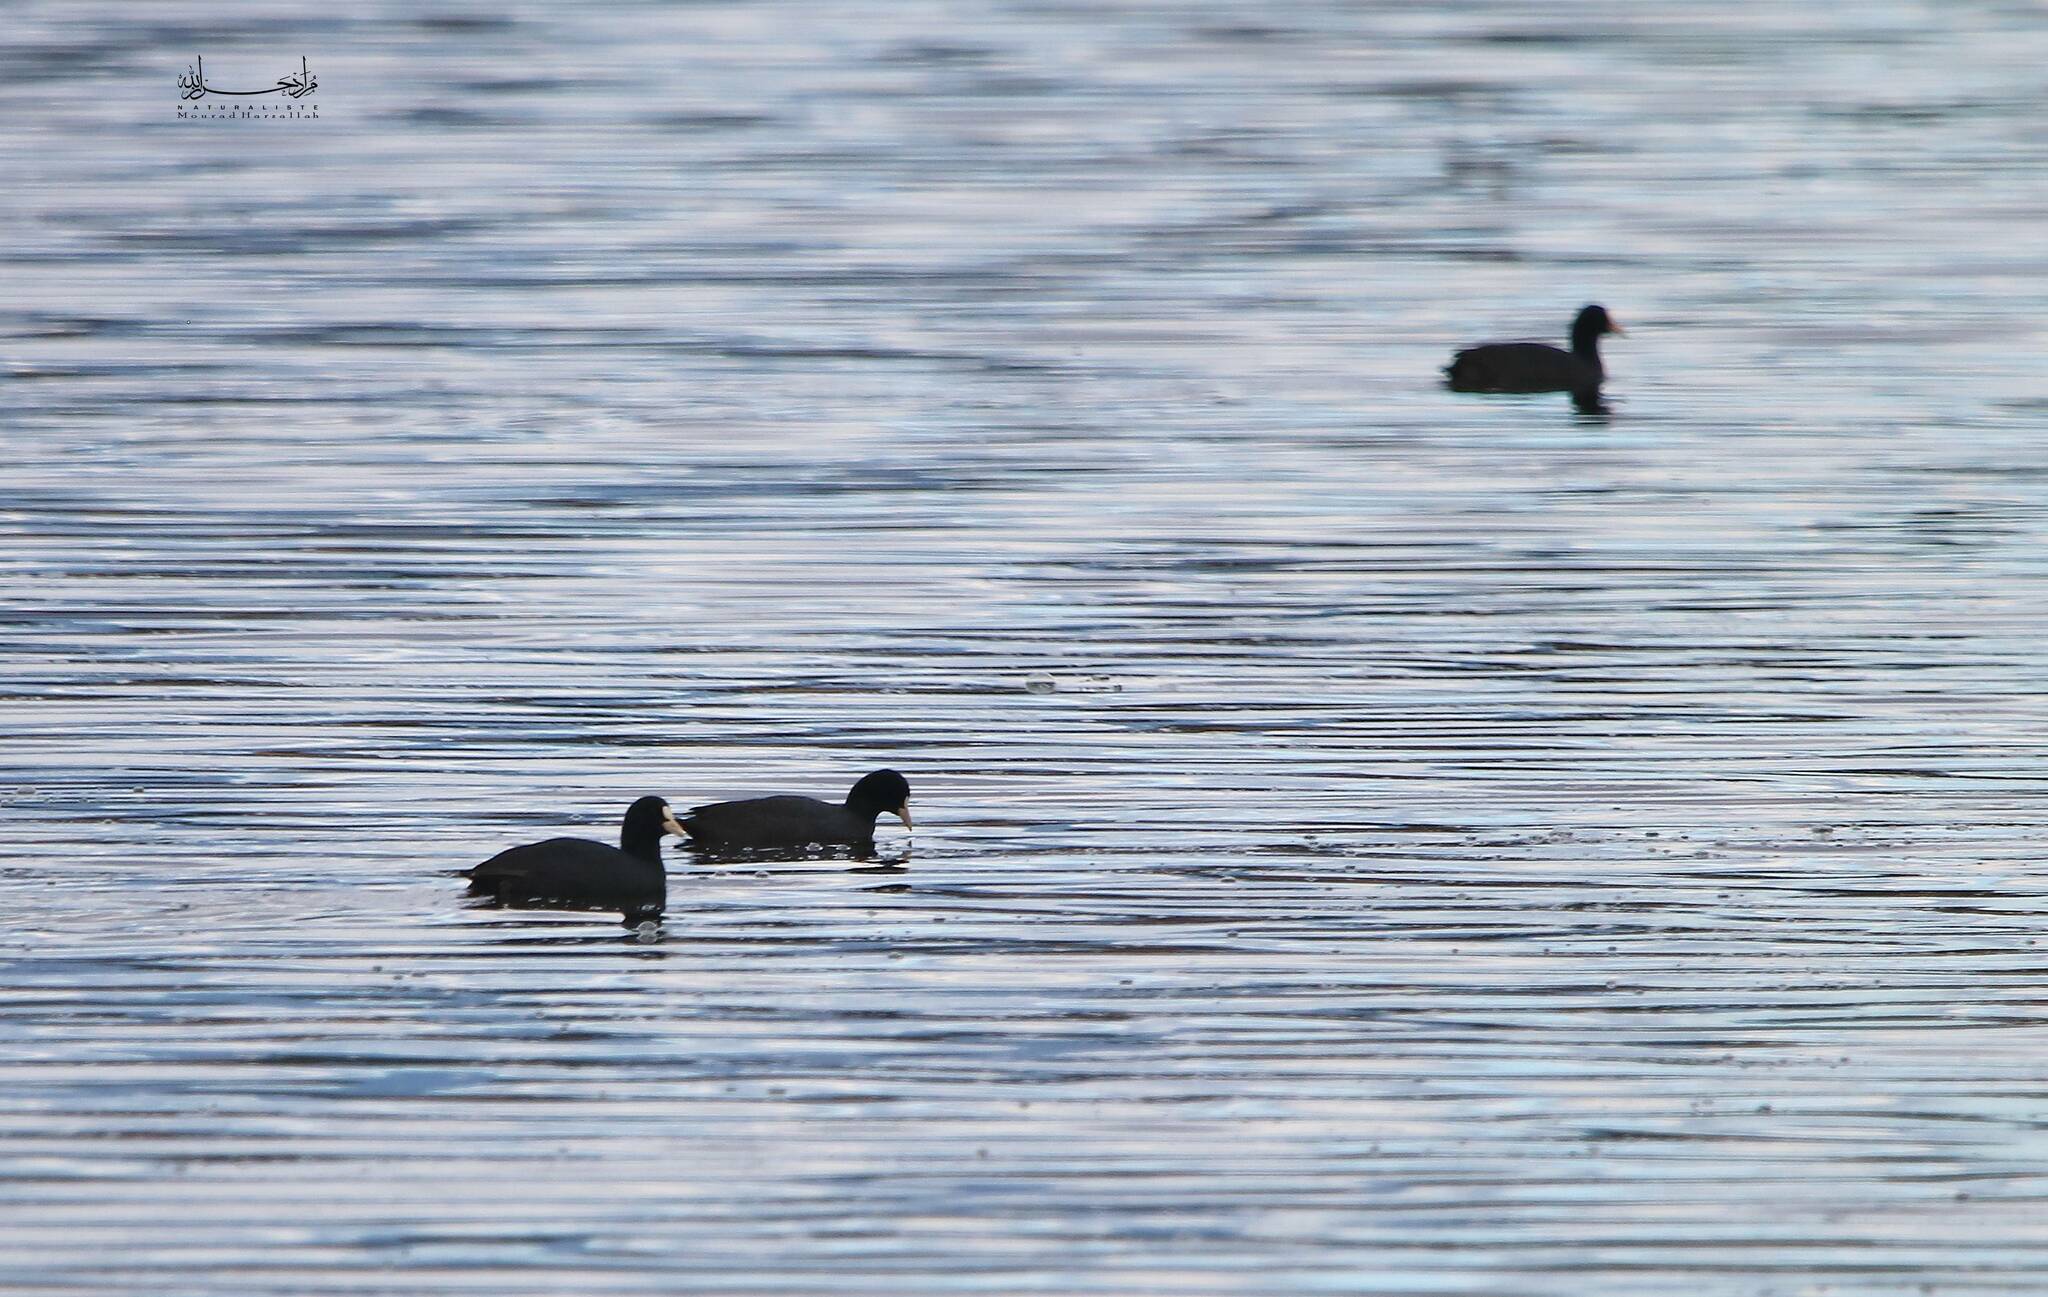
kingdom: Animalia
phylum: Chordata
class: Aves
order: Gruiformes
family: Rallidae
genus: Fulica
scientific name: Fulica atra
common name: Eurasian coot
